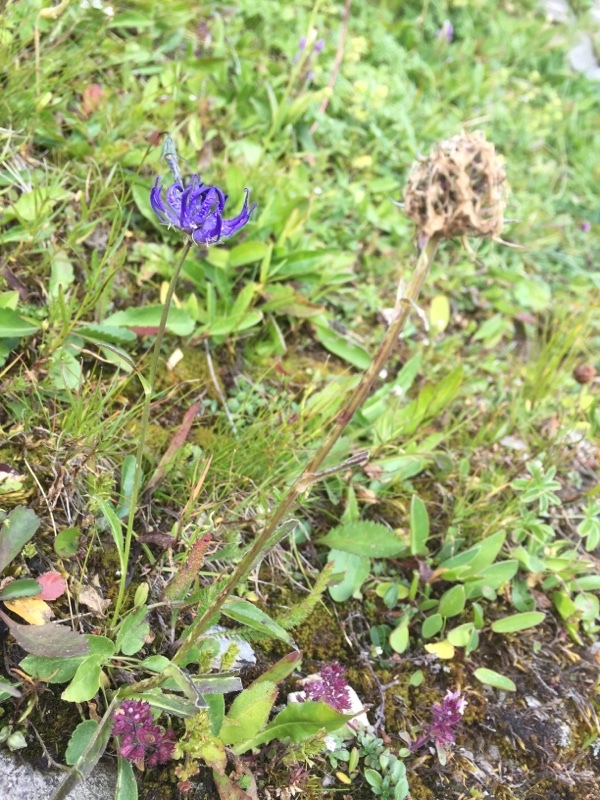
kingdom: Plantae
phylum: Tracheophyta
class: Magnoliopsida
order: Asterales
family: Campanulaceae
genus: Phyteuma
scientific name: Phyteuma orbiculare
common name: Round-headed rampion
